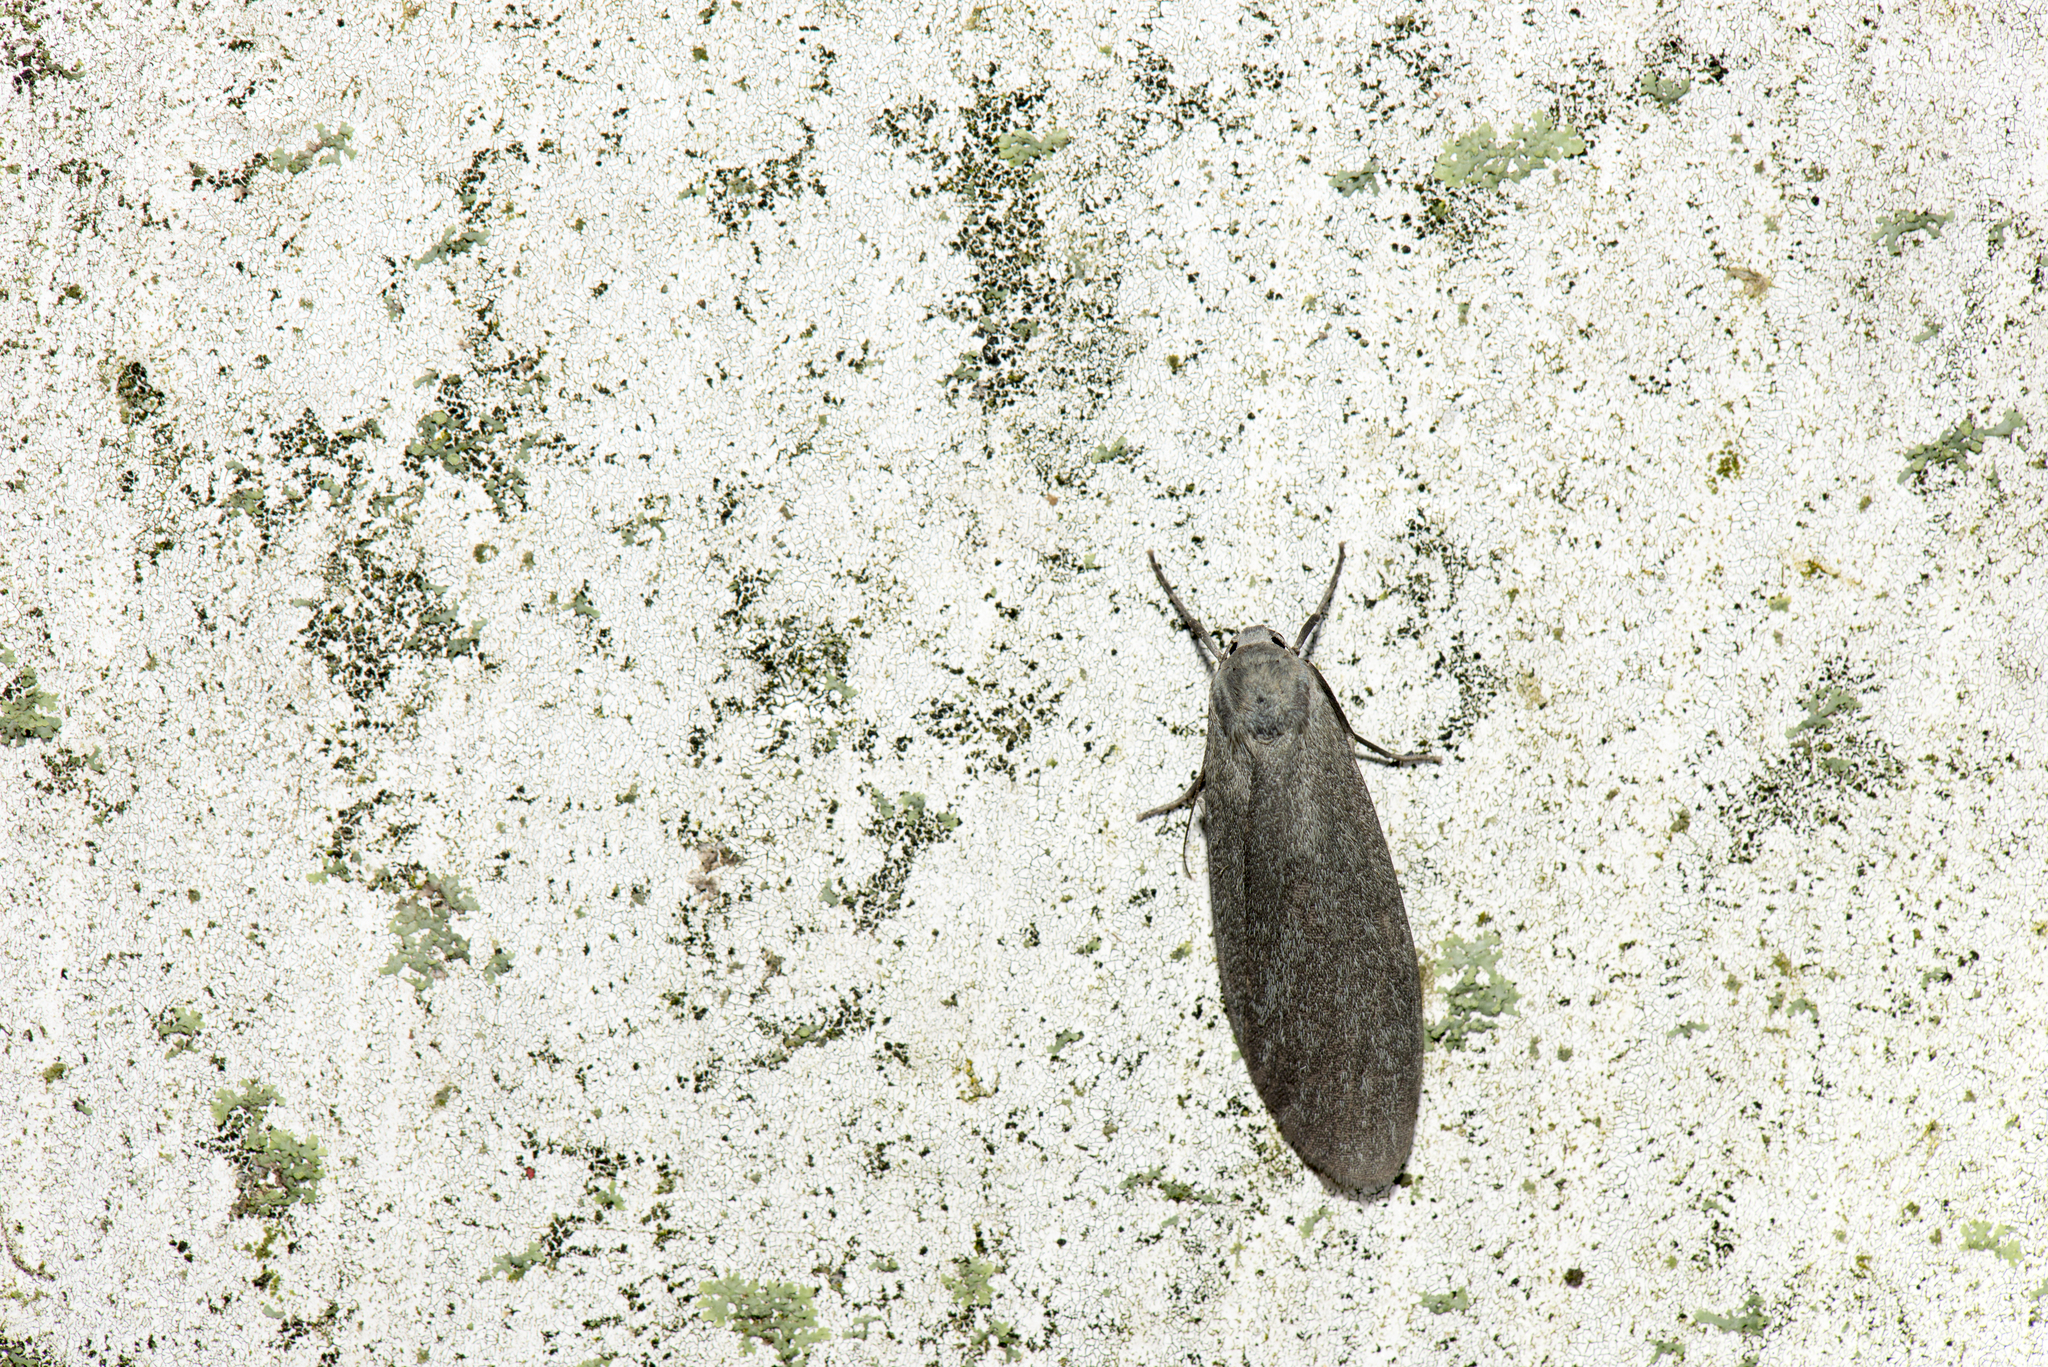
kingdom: Animalia
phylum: Arthropoda
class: Insecta
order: Lepidoptera
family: Erebidae
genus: Eilema
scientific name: Eilema pulverea
